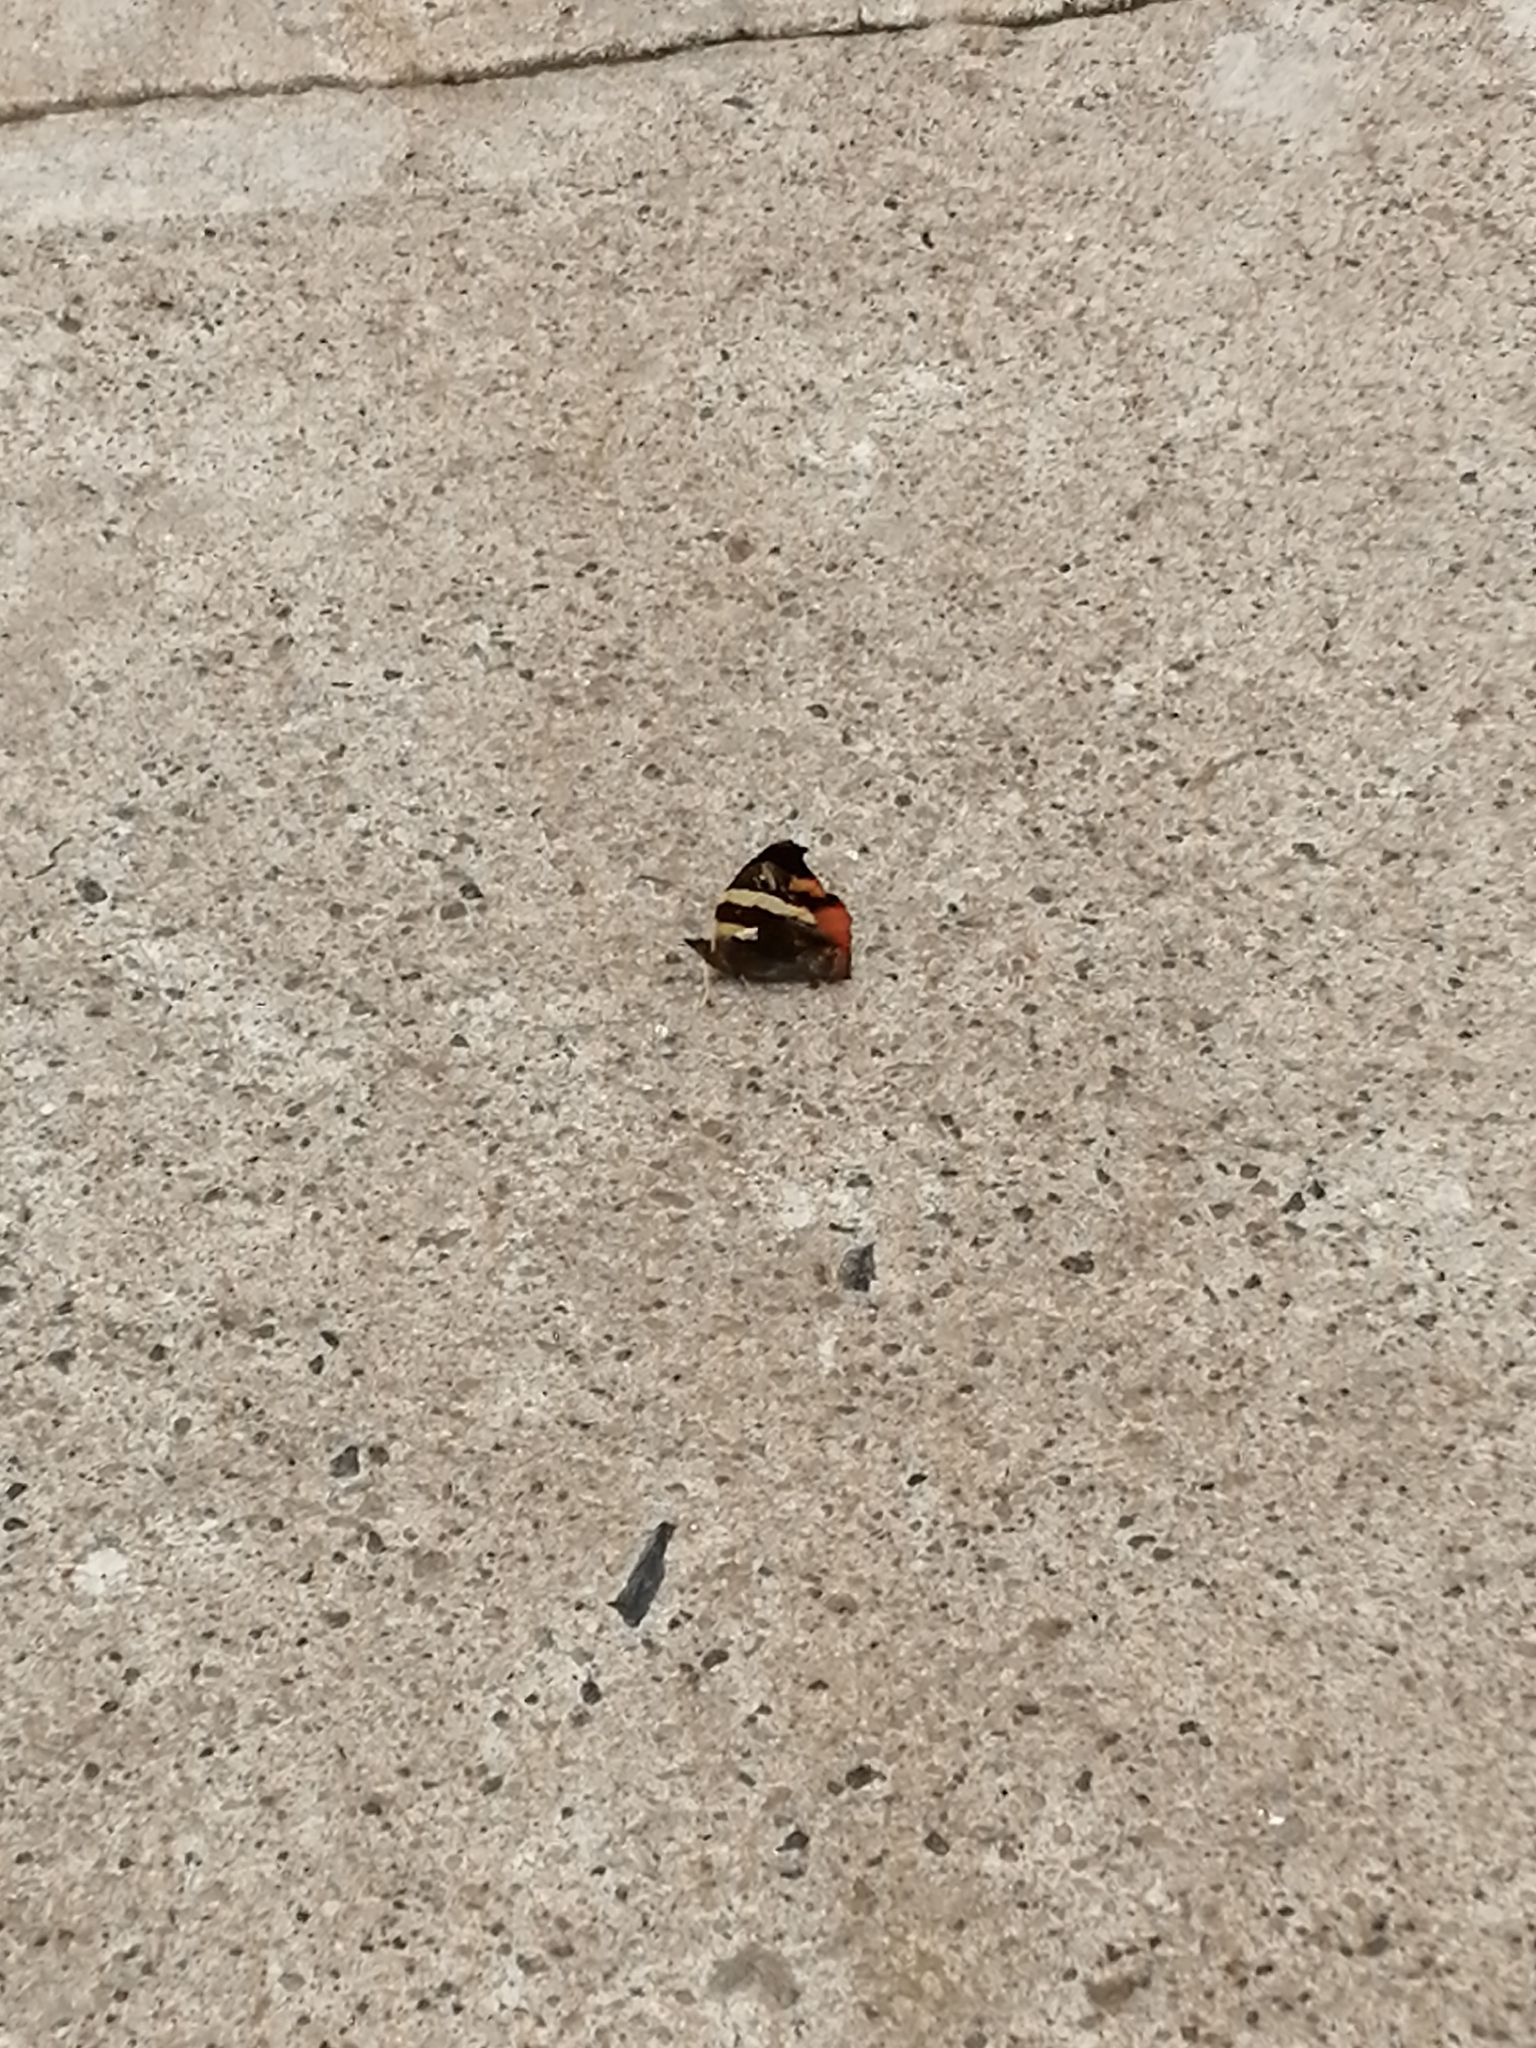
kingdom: Animalia
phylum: Arthropoda
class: Insecta
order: Lepidoptera
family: Nymphalidae
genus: Epiphile
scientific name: Epiphile adrasta
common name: Common banner
